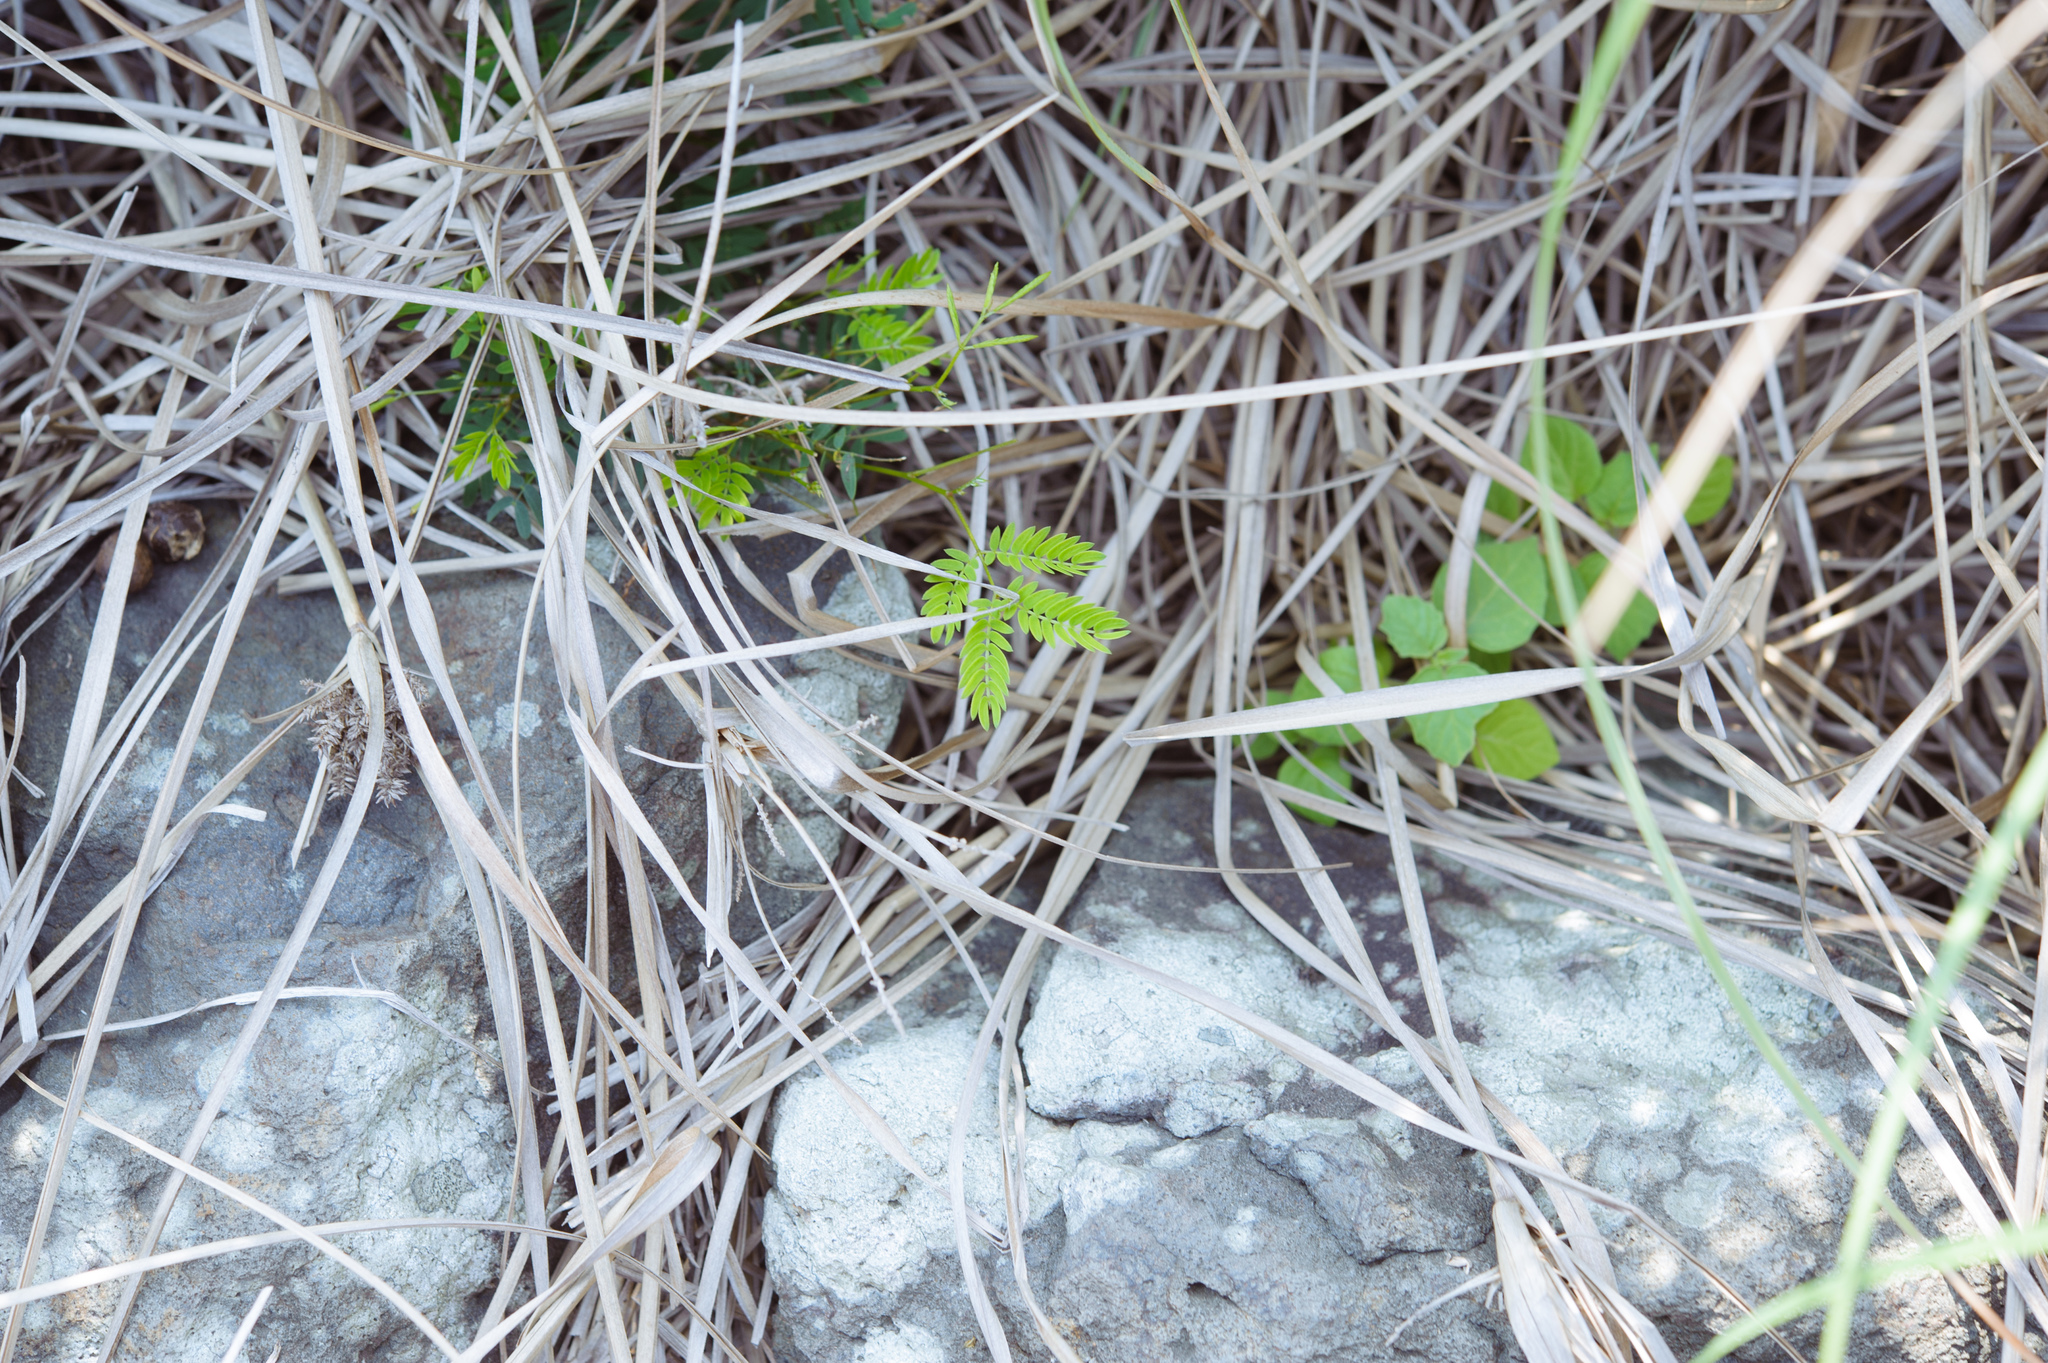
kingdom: Plantae
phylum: Tracheophyta
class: Magnoliopsida
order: Fabales
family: Fabaceae
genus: Leucaena
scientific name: Leucaena leucocephala
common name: White leadtree
